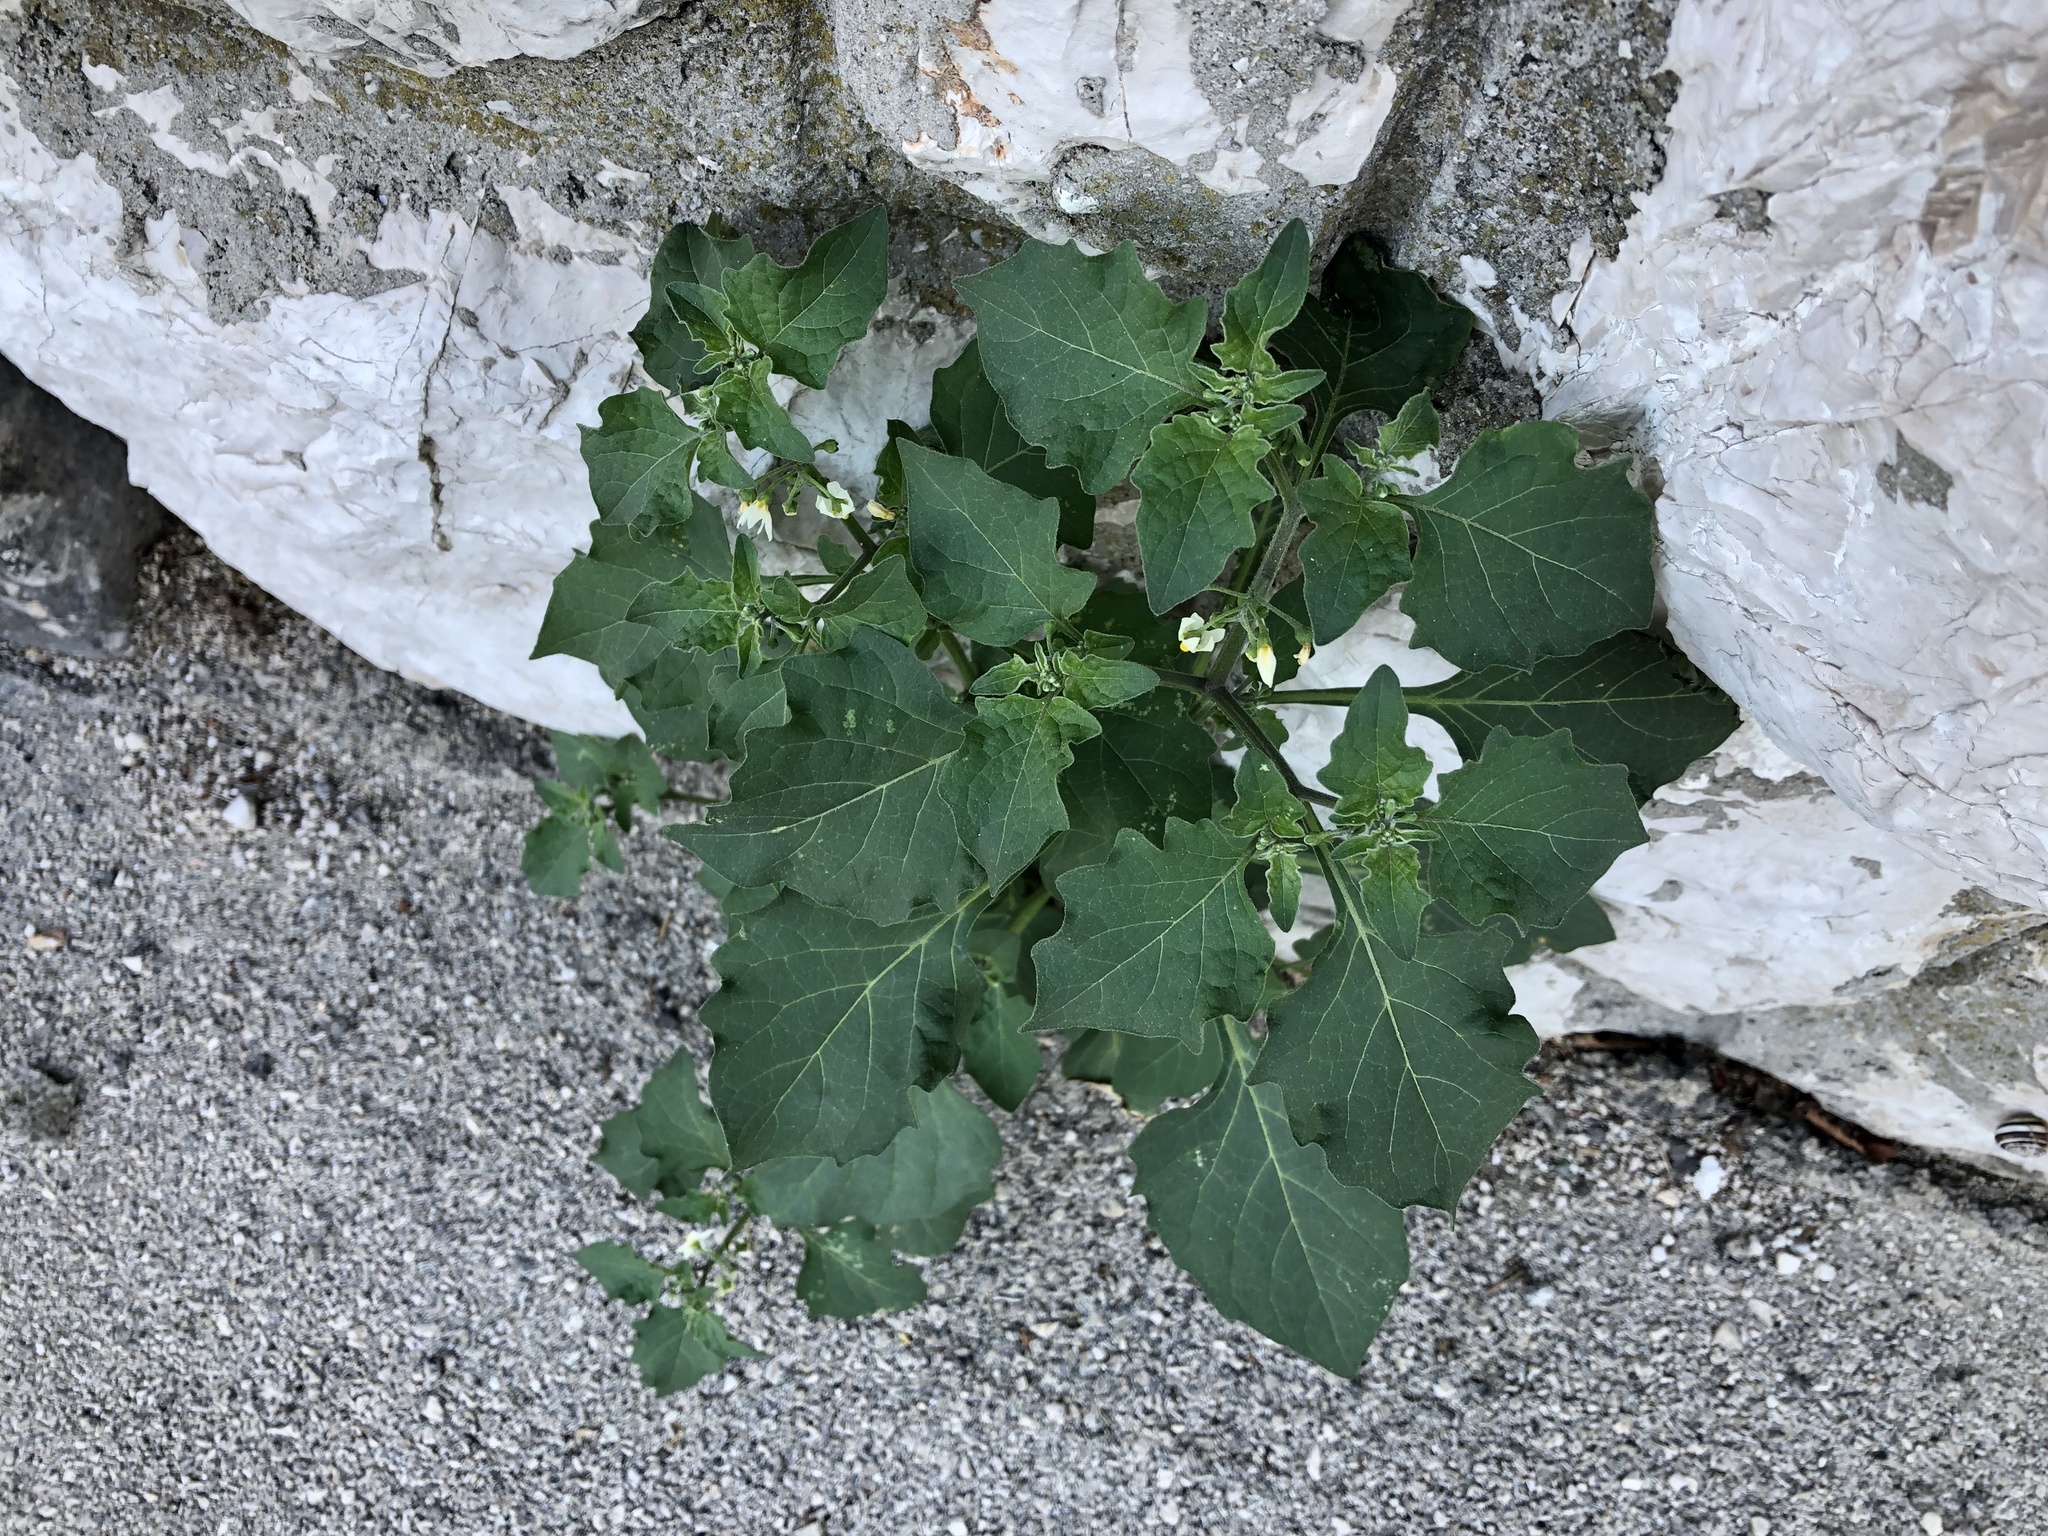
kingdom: Plantae
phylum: Tracheophyta
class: Magnoliopsida
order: Solanales
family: Solanaceae
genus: Solanum
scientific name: Solanum nigrum
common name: Black nightshade
